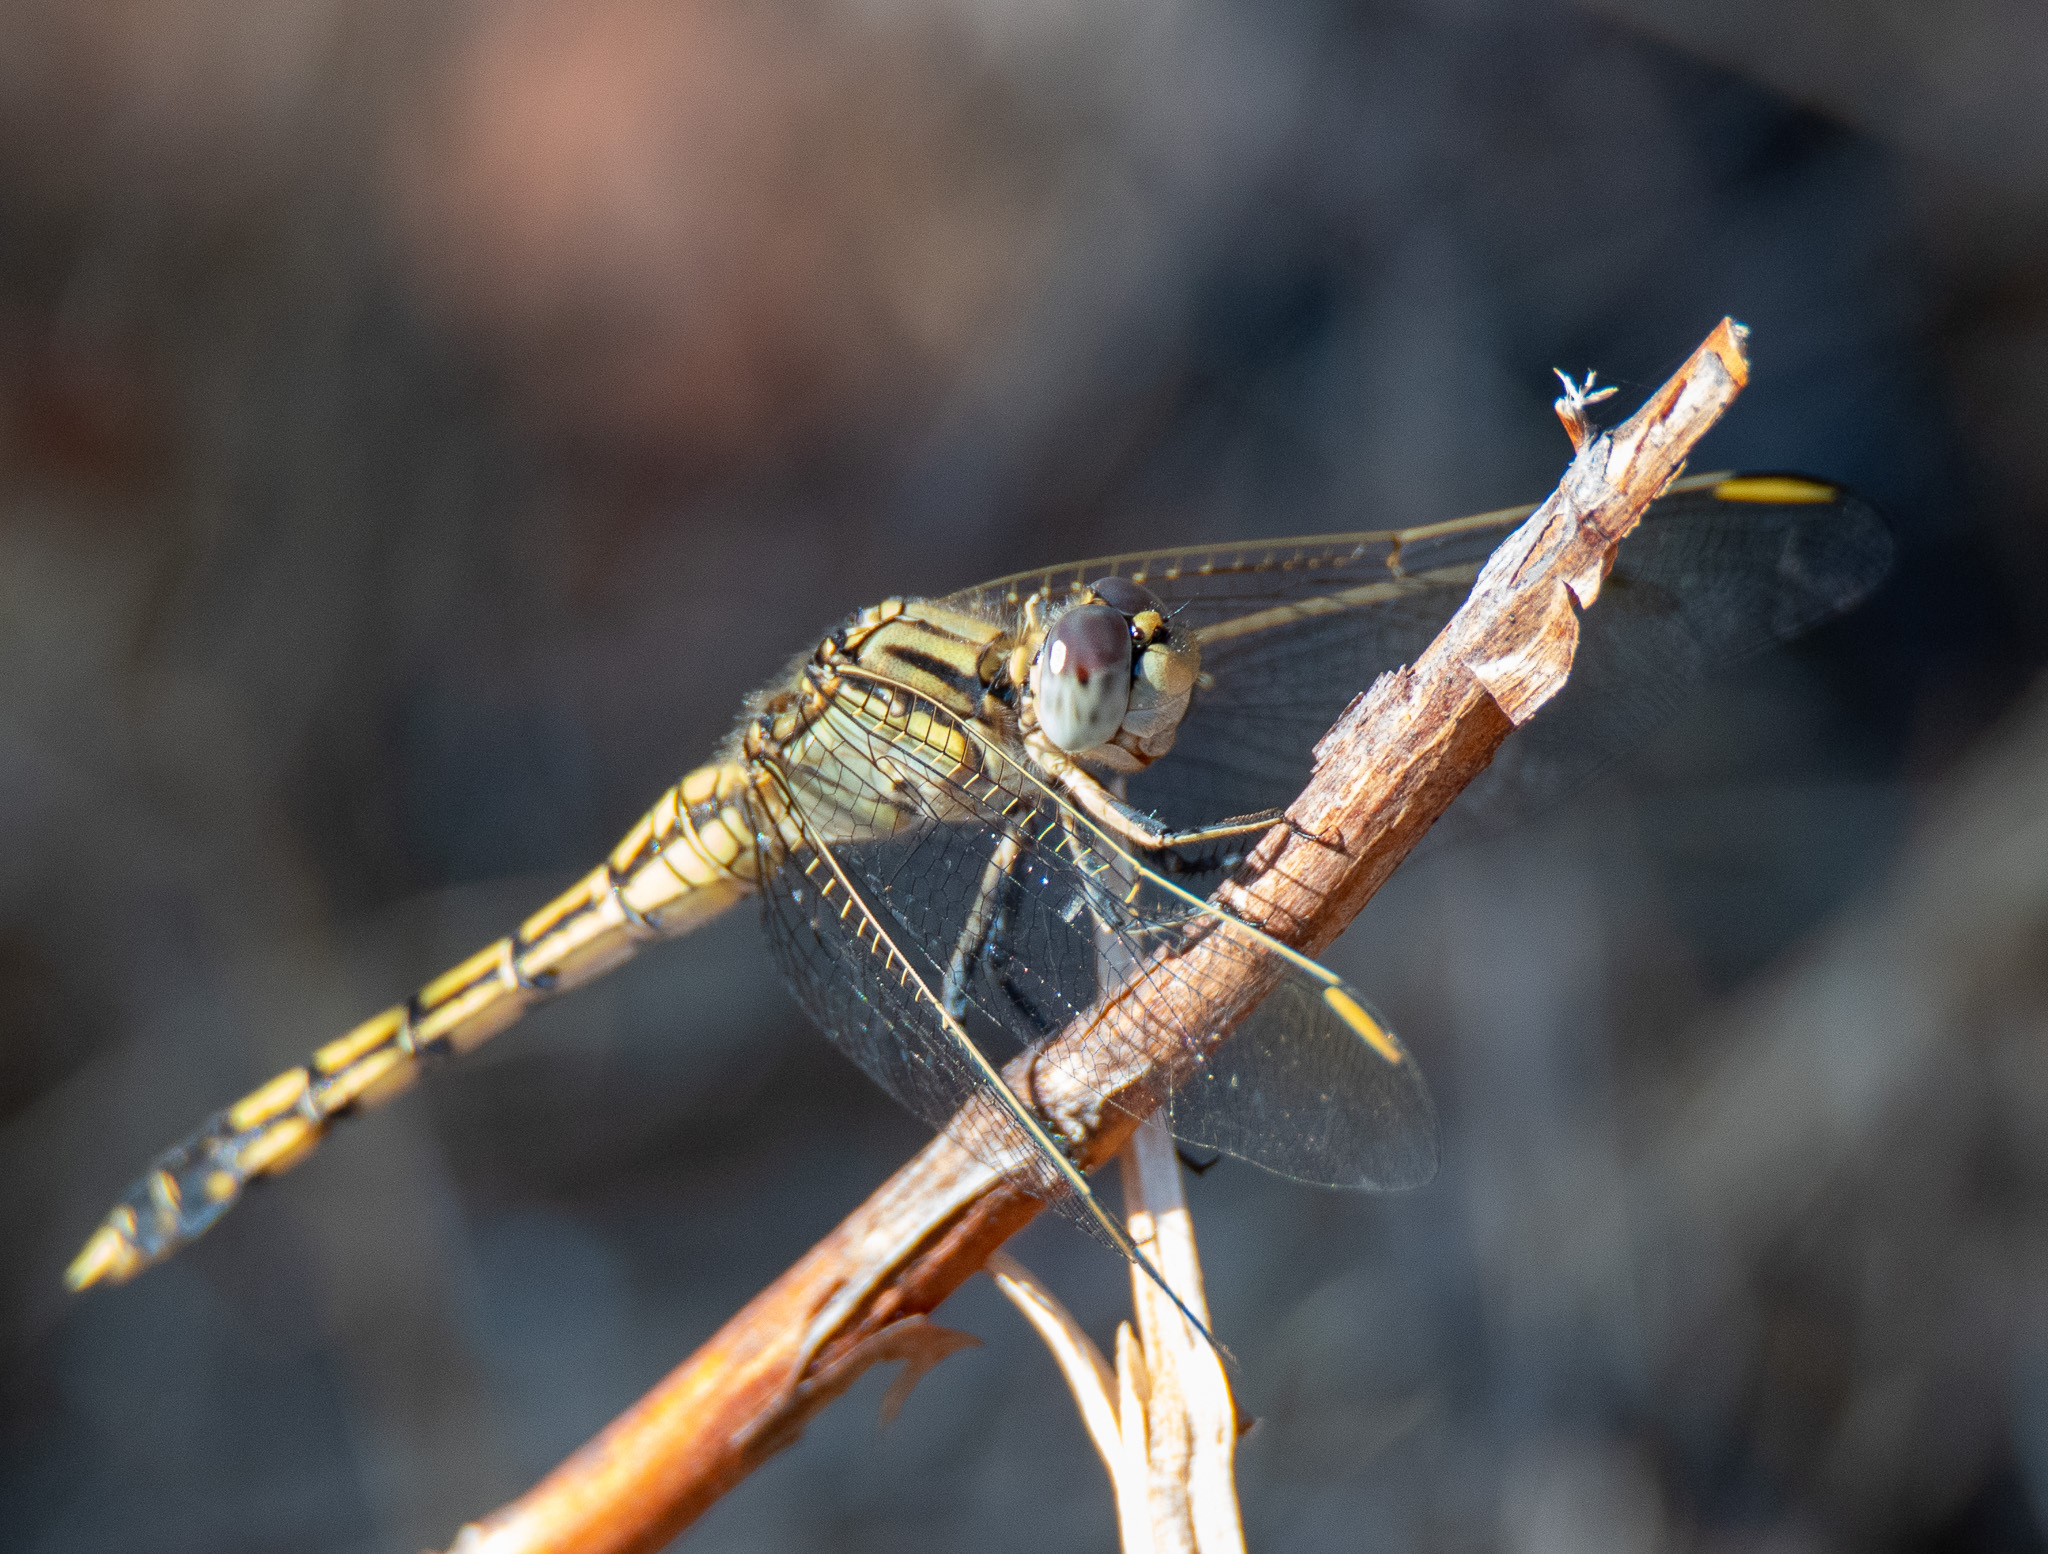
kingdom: Animalia
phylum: Arthropoda
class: Insecta
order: Odonata
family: Libellulidae
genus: Orthetrum
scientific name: Orthetrum caledonicum
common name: Blue skimmer
